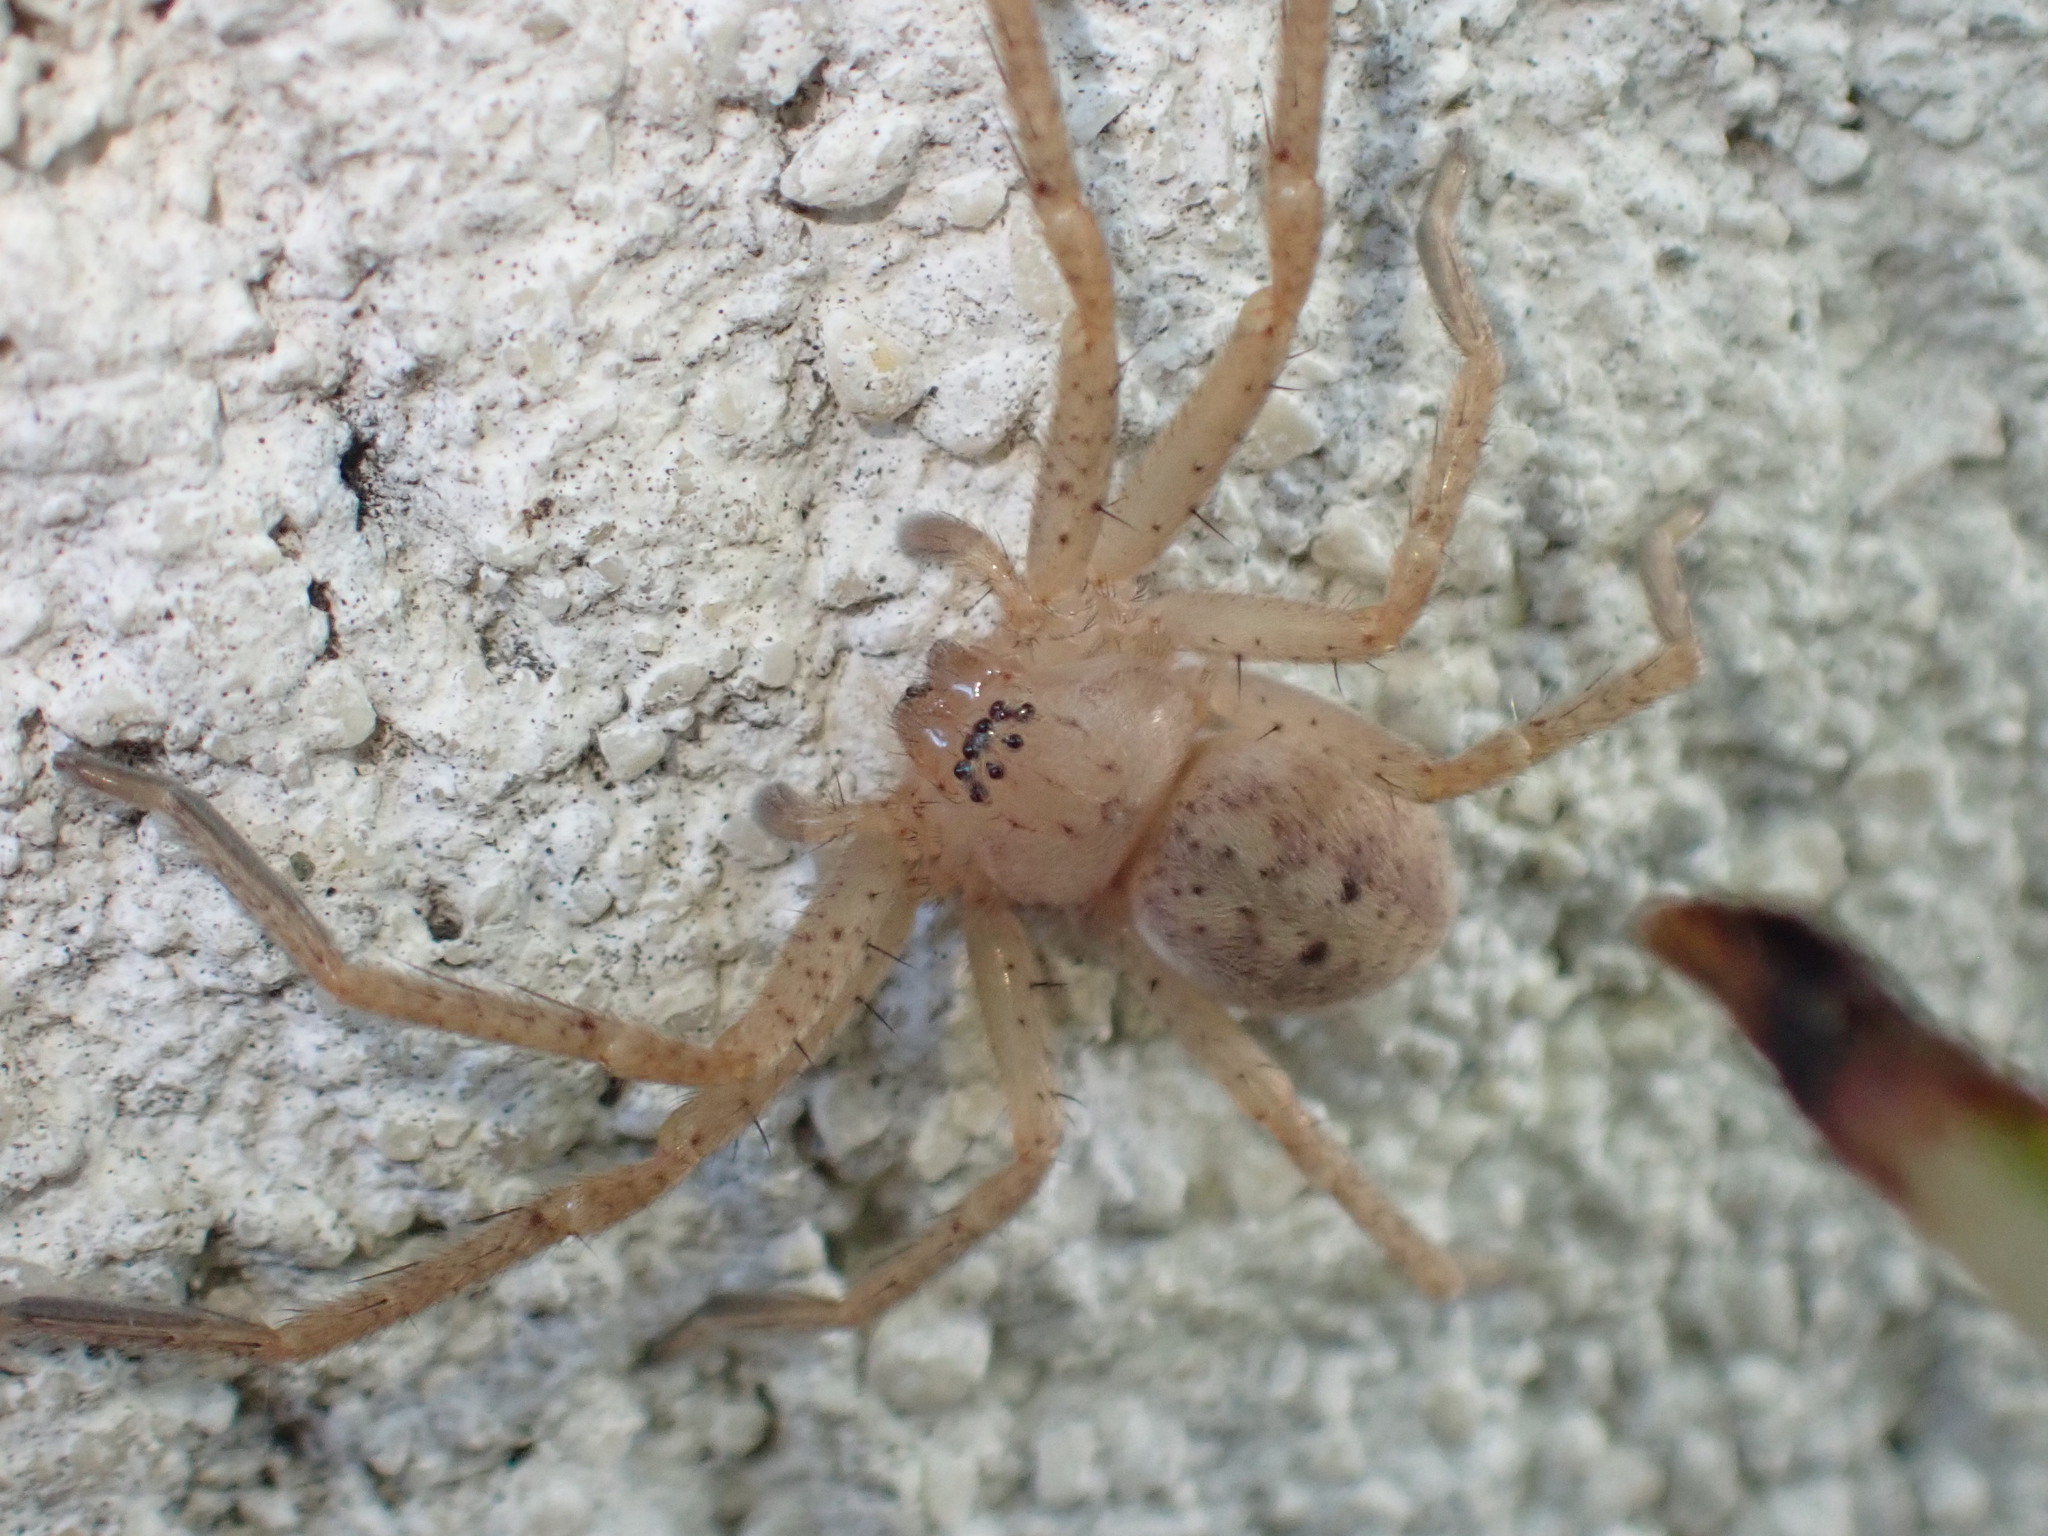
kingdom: Animalia
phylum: Arthropoda
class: Arachnida
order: Araneae
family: Sparassidae
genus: Olios
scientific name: Olios argelasius
